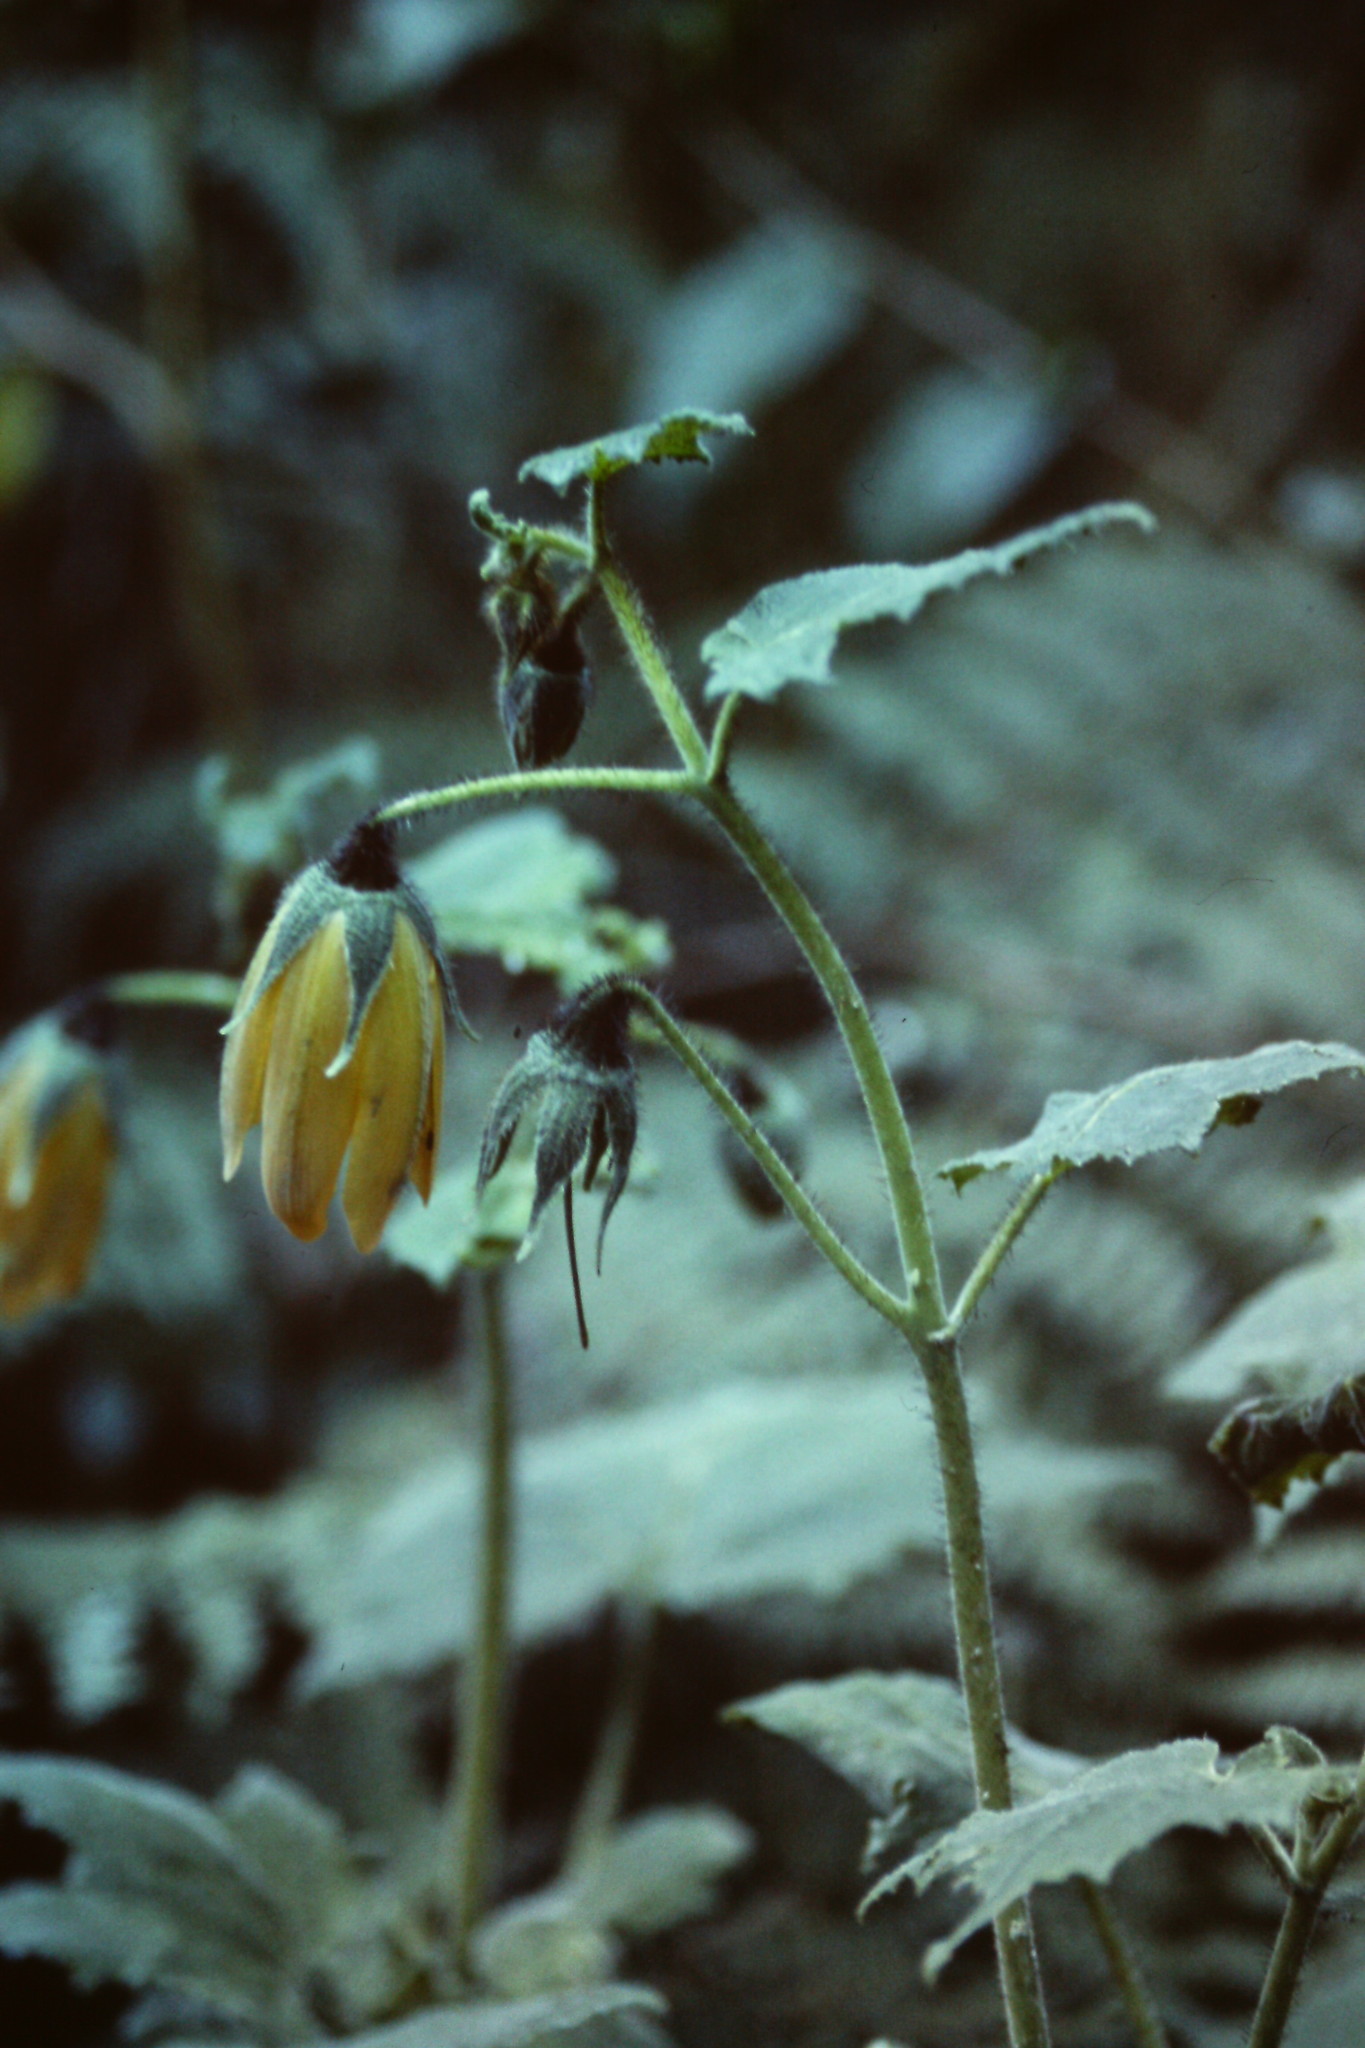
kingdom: Plantae
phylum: Tracheophyta
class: Magnoliopsida
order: Cornales
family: Loasaceae
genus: Nasa
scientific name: Nasa speciosa
